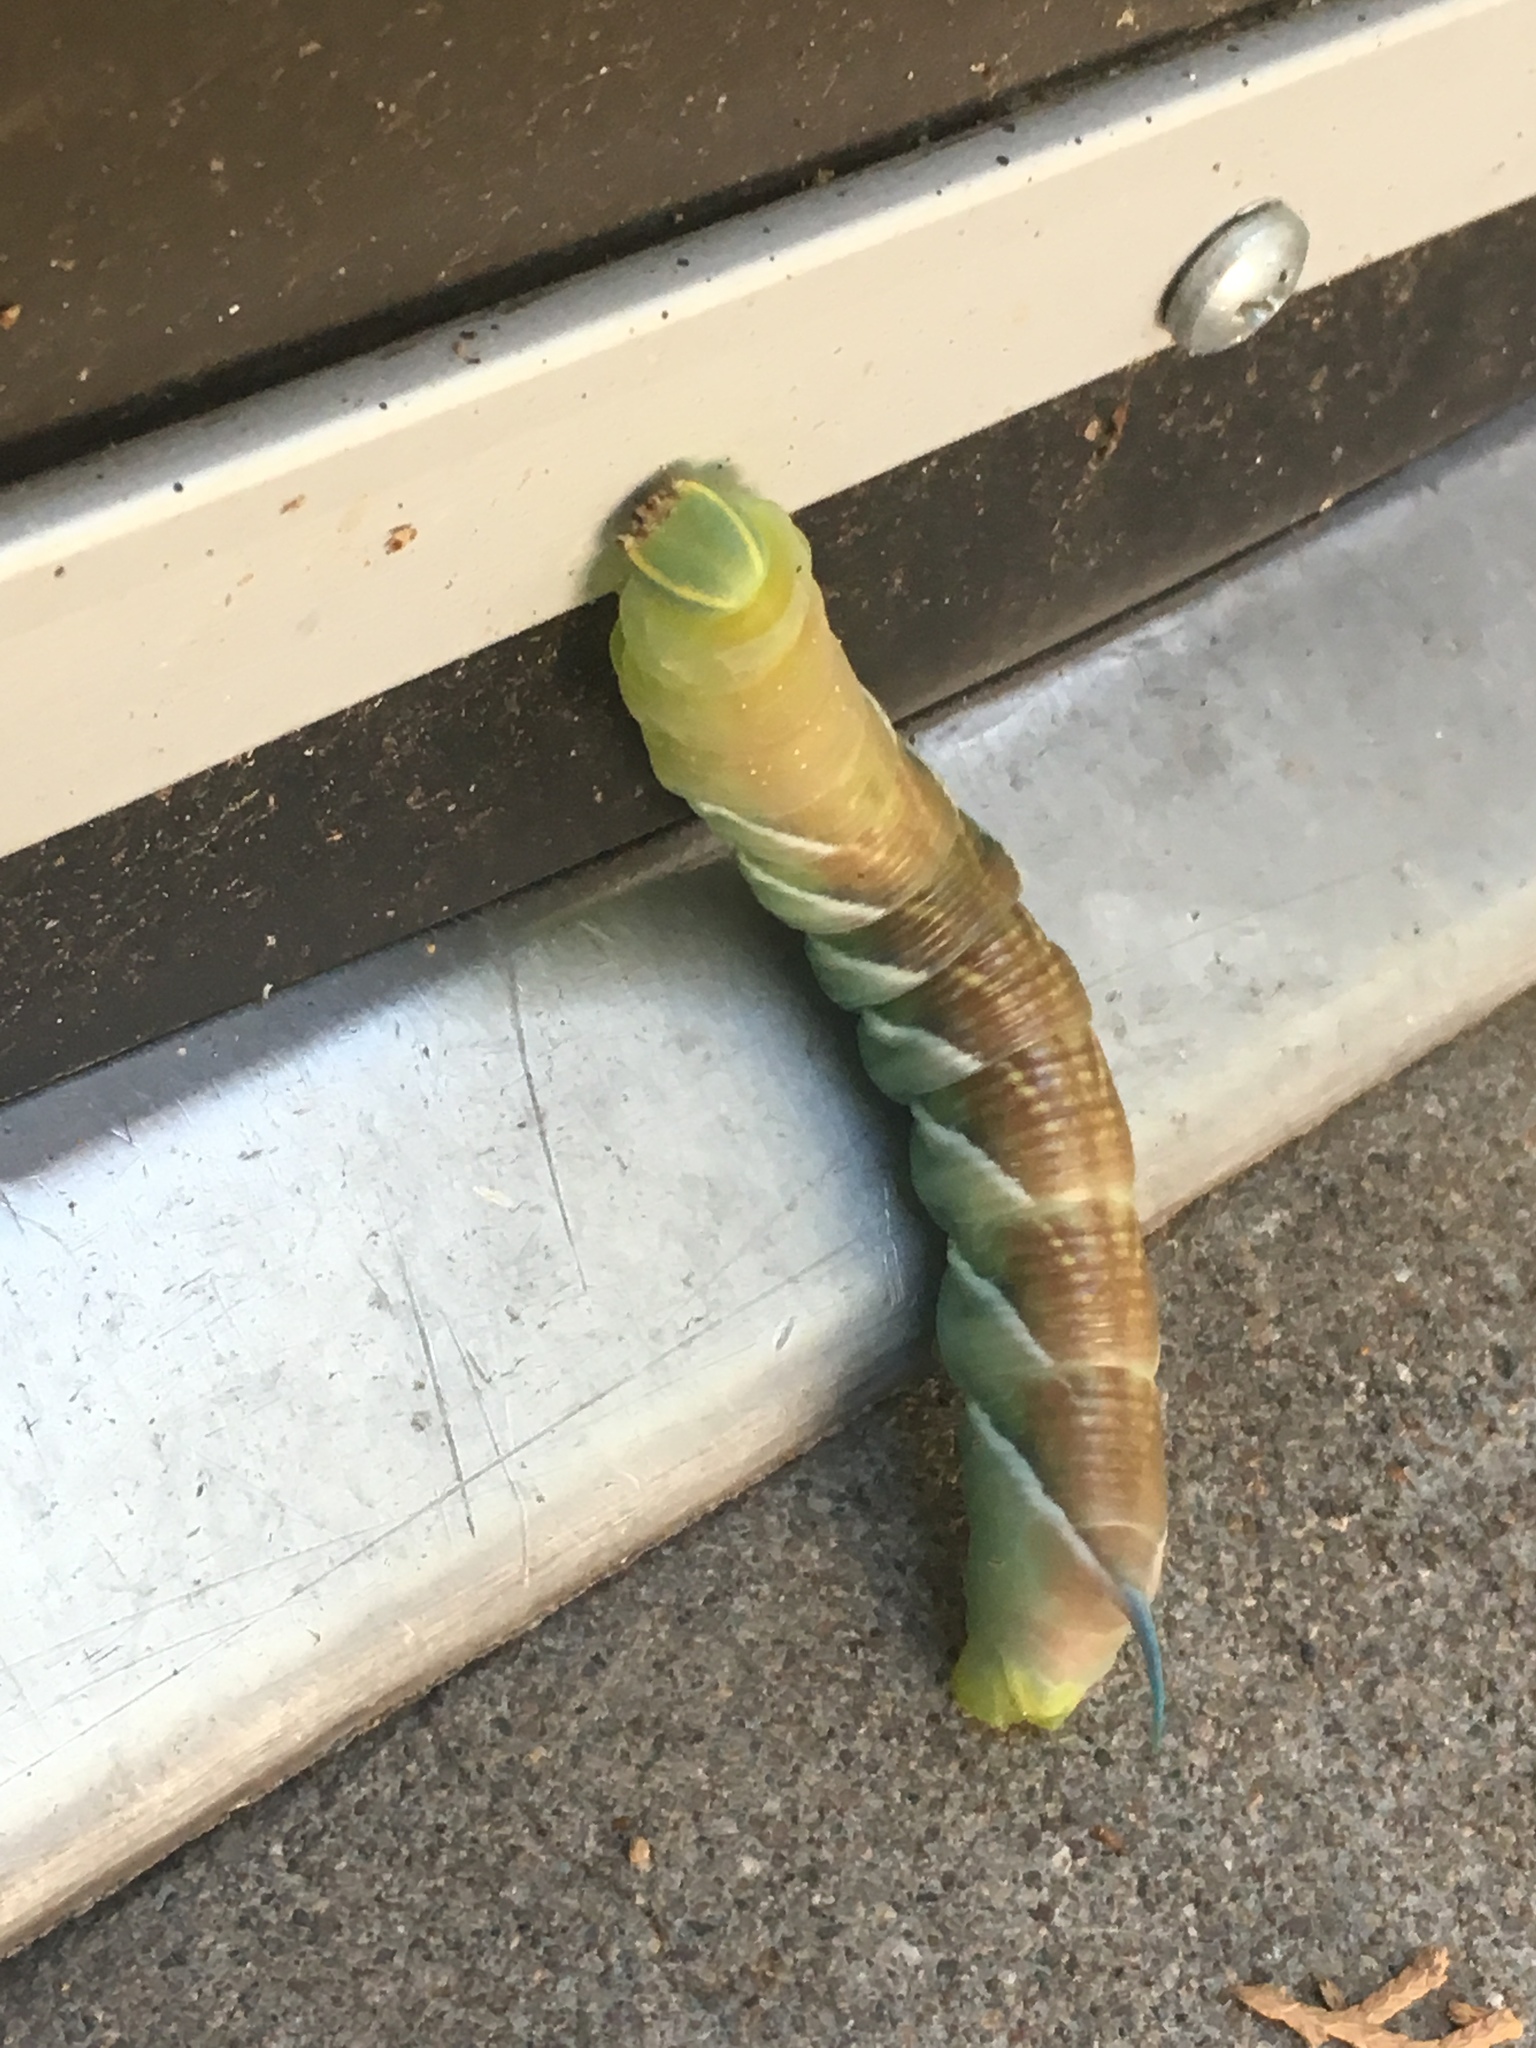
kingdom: Animalia
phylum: Arthropoda
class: Insecta
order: Lepidoptera
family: Sphingidae
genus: Sphinx
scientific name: Sphinx chersis
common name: Great ash sphinx
